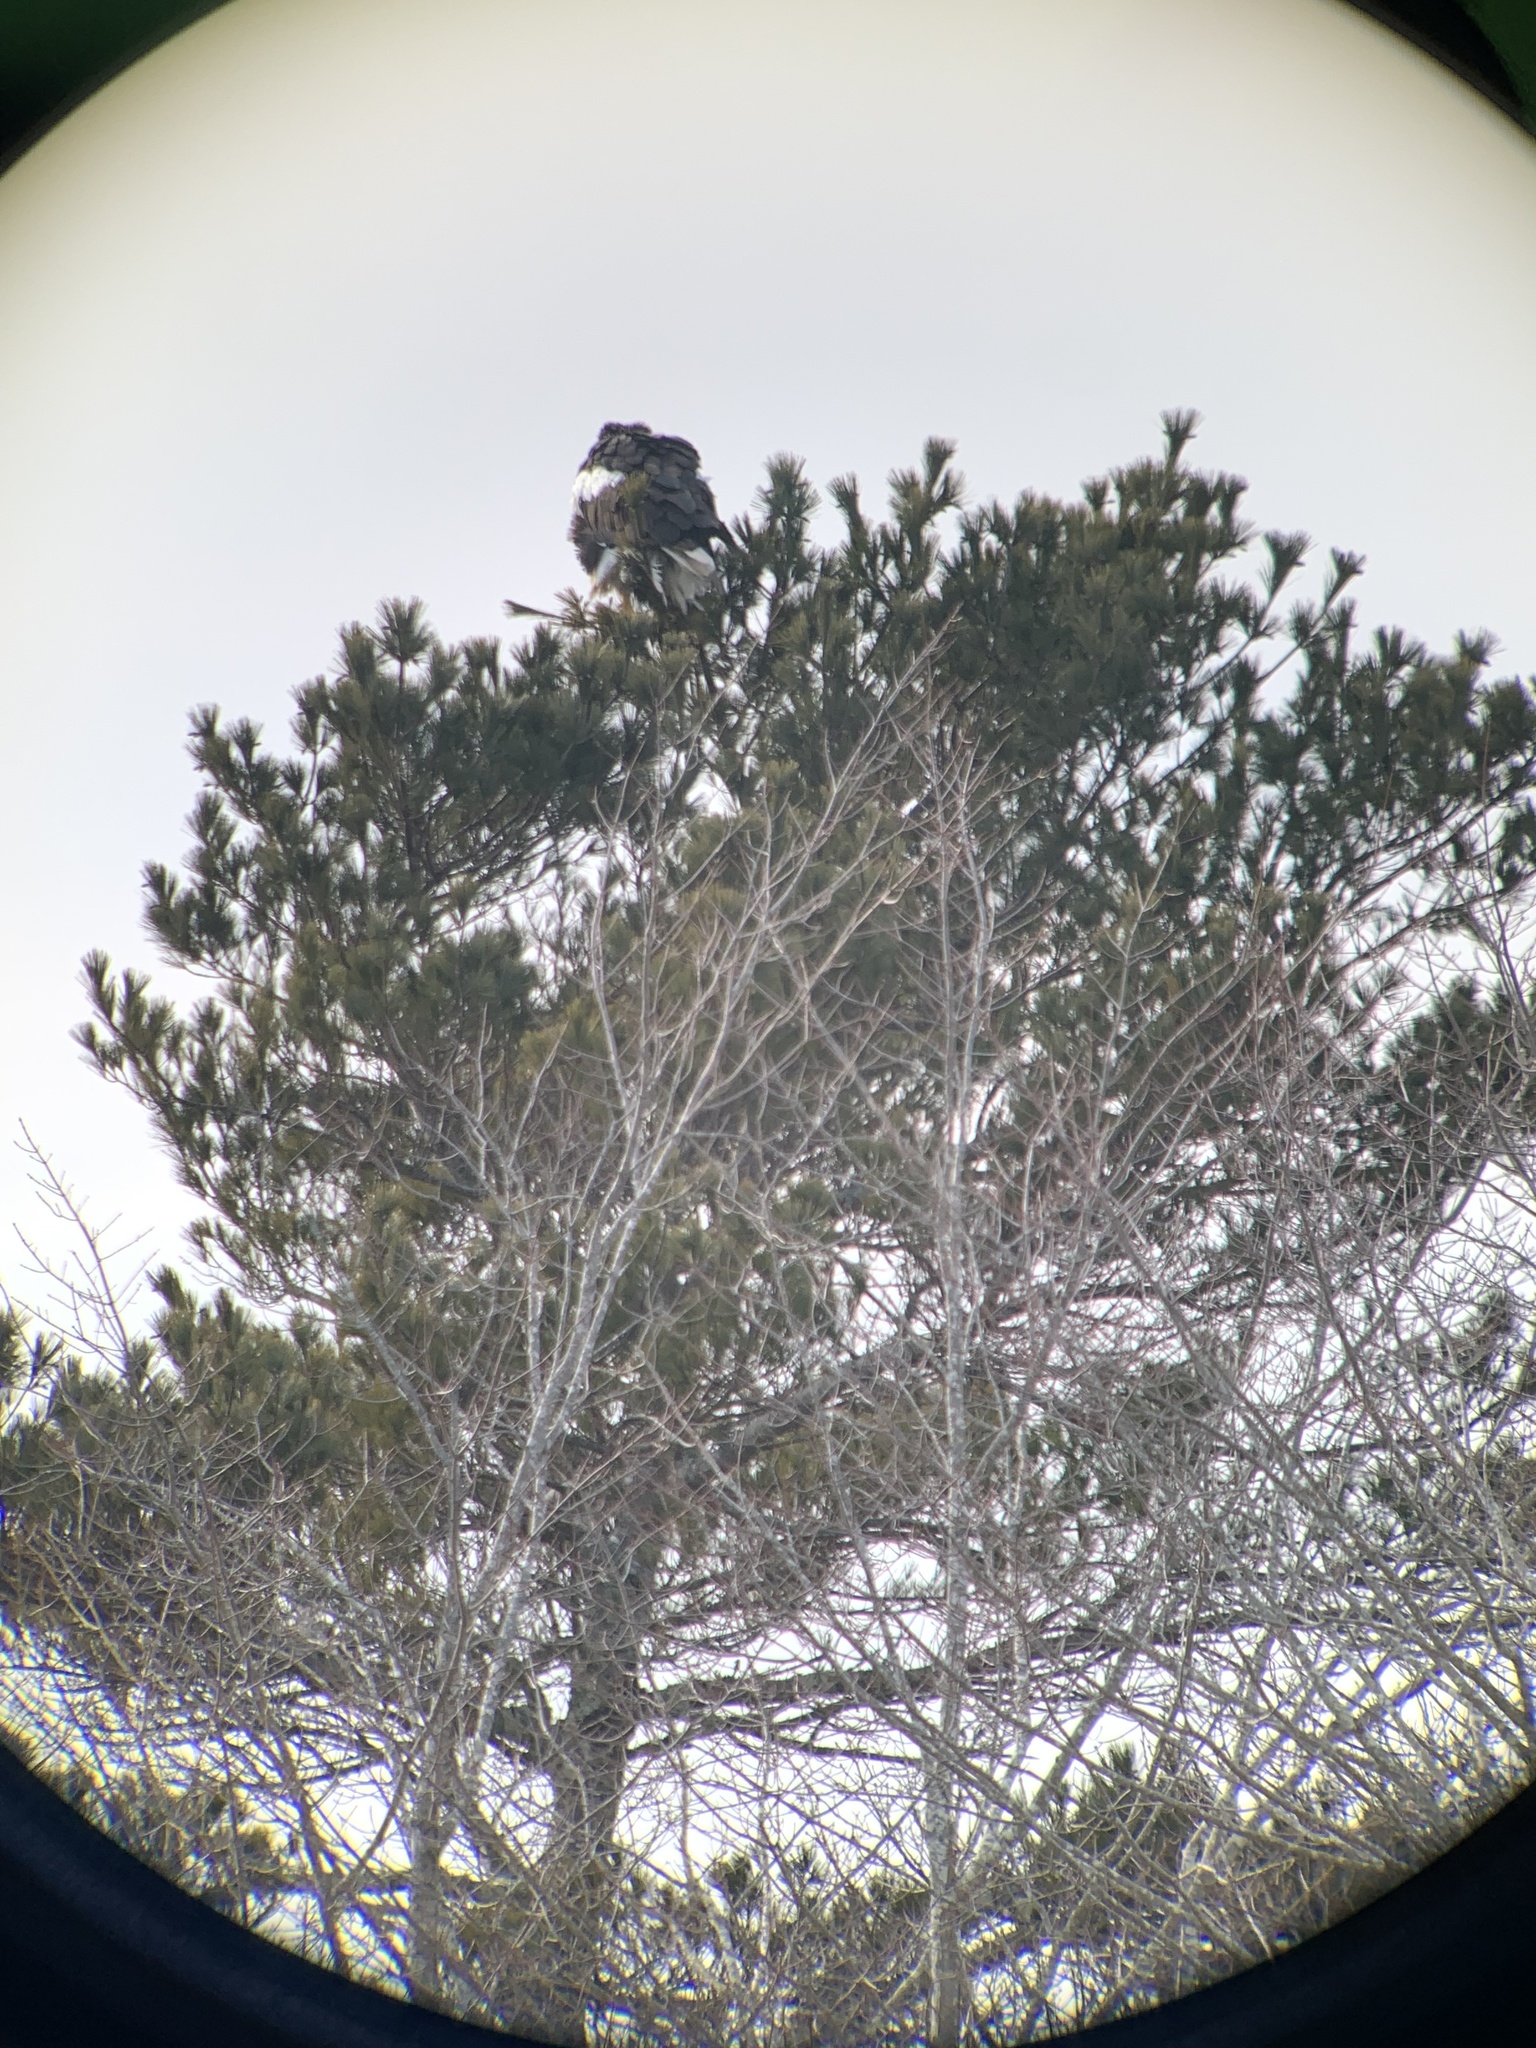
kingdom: Animalia
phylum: Chordata
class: Aves
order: Accipitriformes
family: Accipitridae
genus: Haliaeetus
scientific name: Haliaeetus pelagicus
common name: Steller's sea eagle
